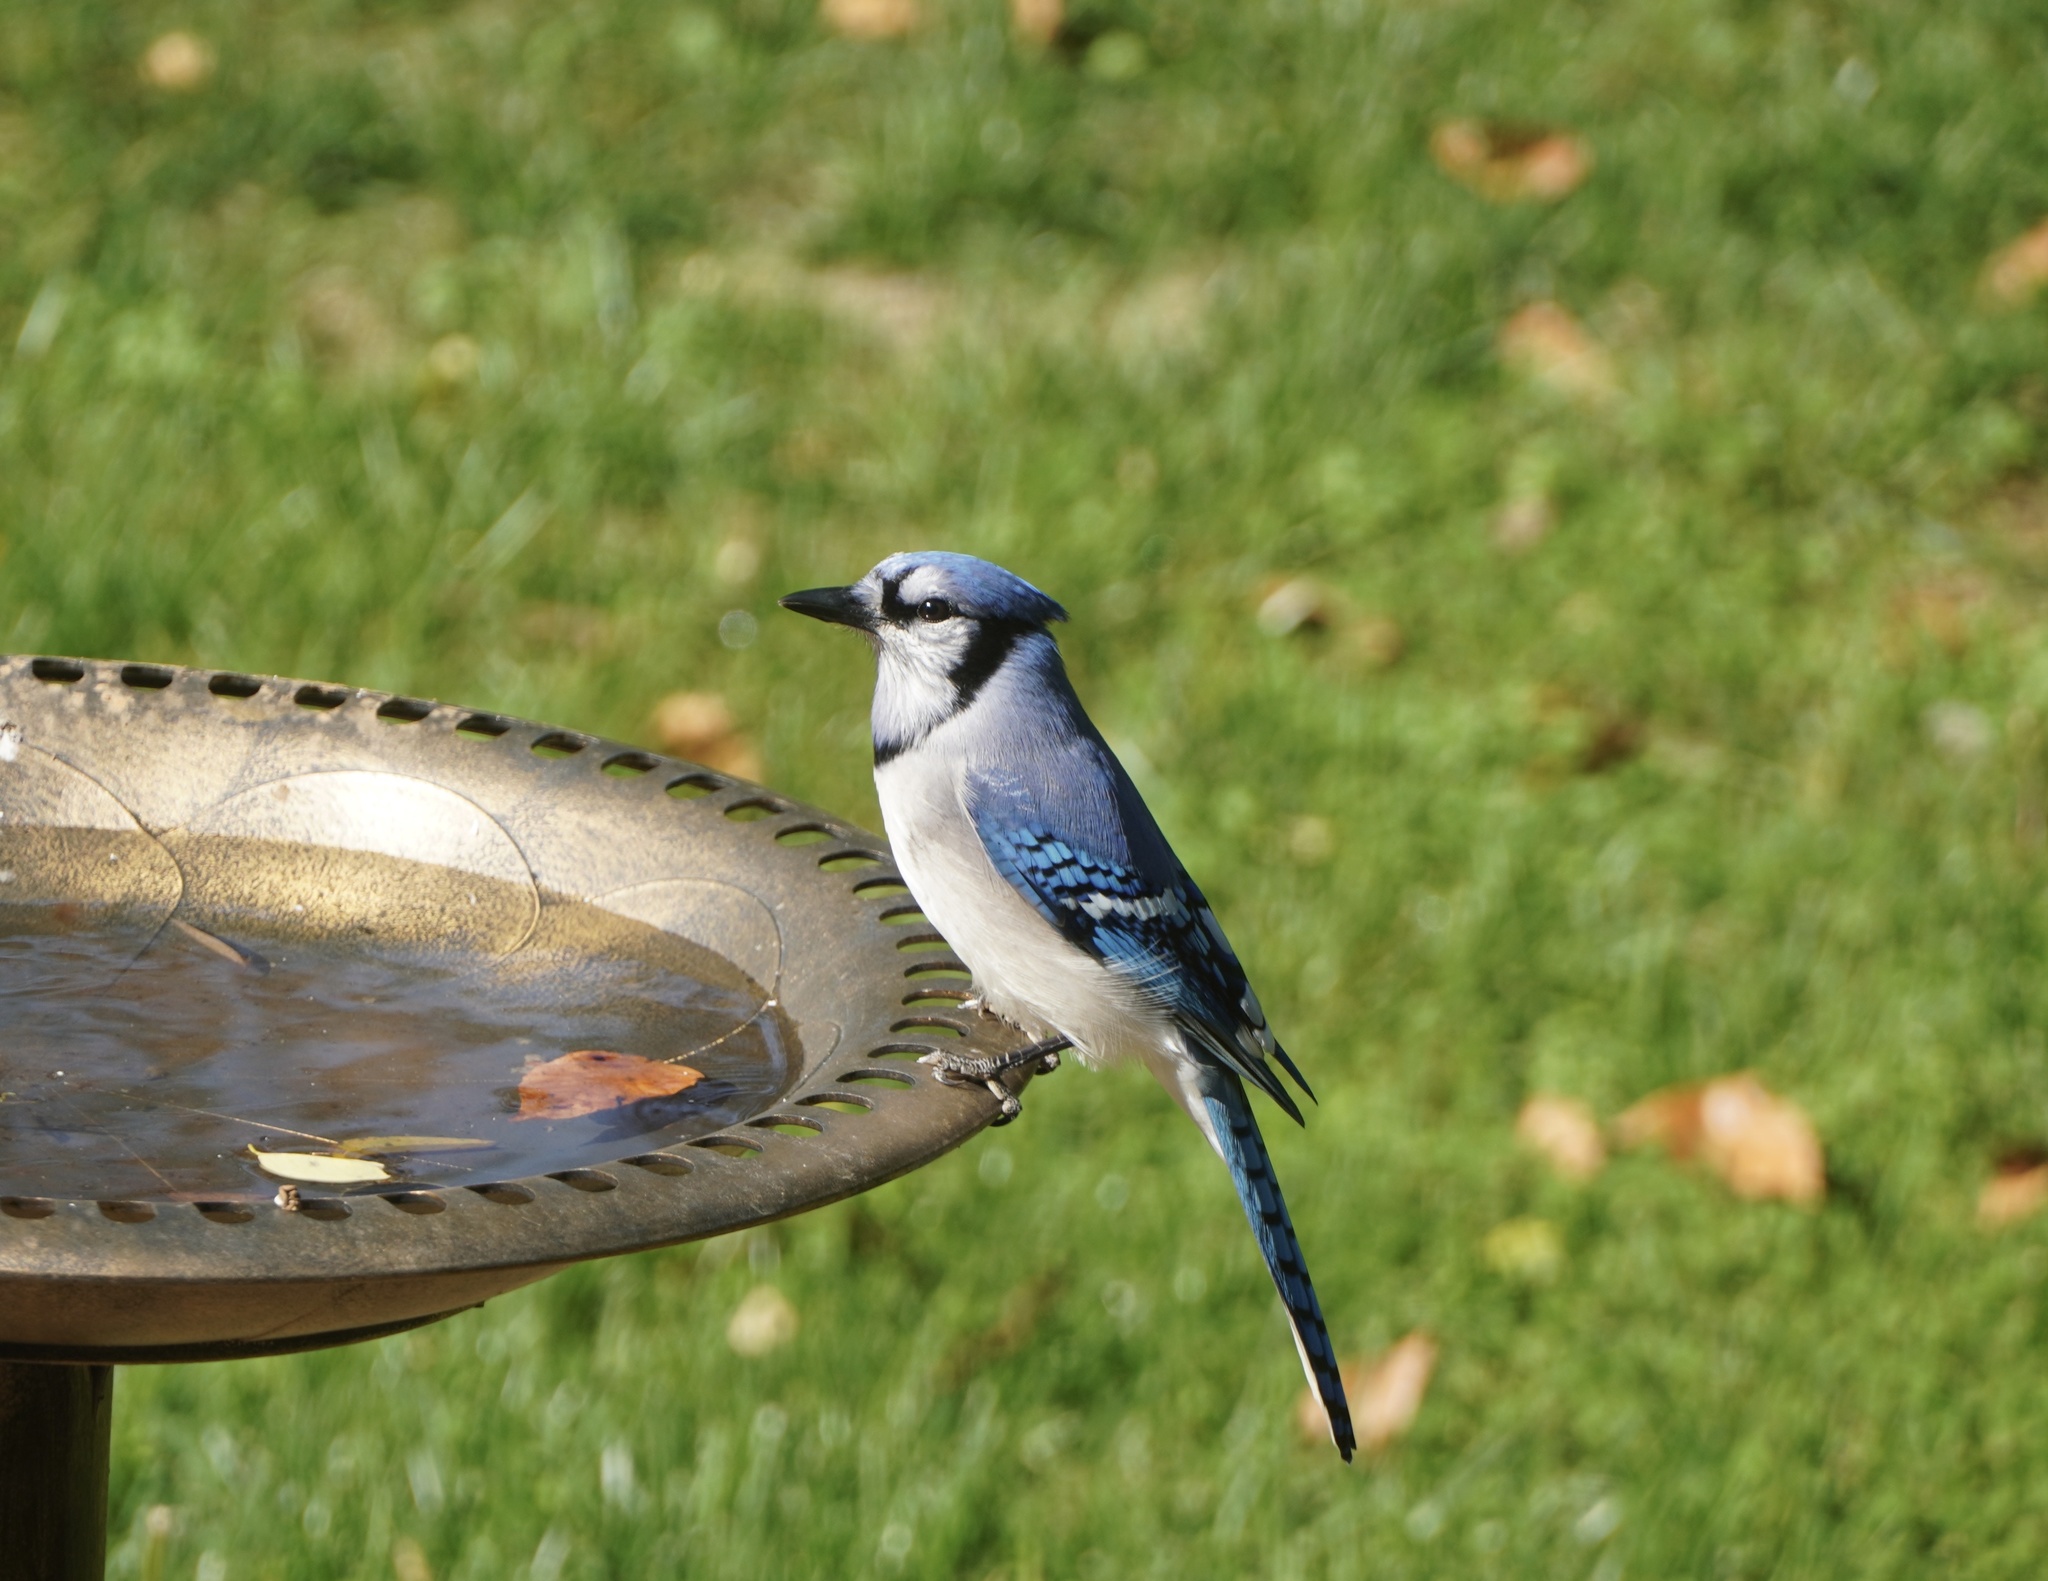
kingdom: Animalia
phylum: Chordata
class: Aves
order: Passeriformes
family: Corvidae
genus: Cyanocitta
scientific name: Cyanocitta cristata
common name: Blue jay
